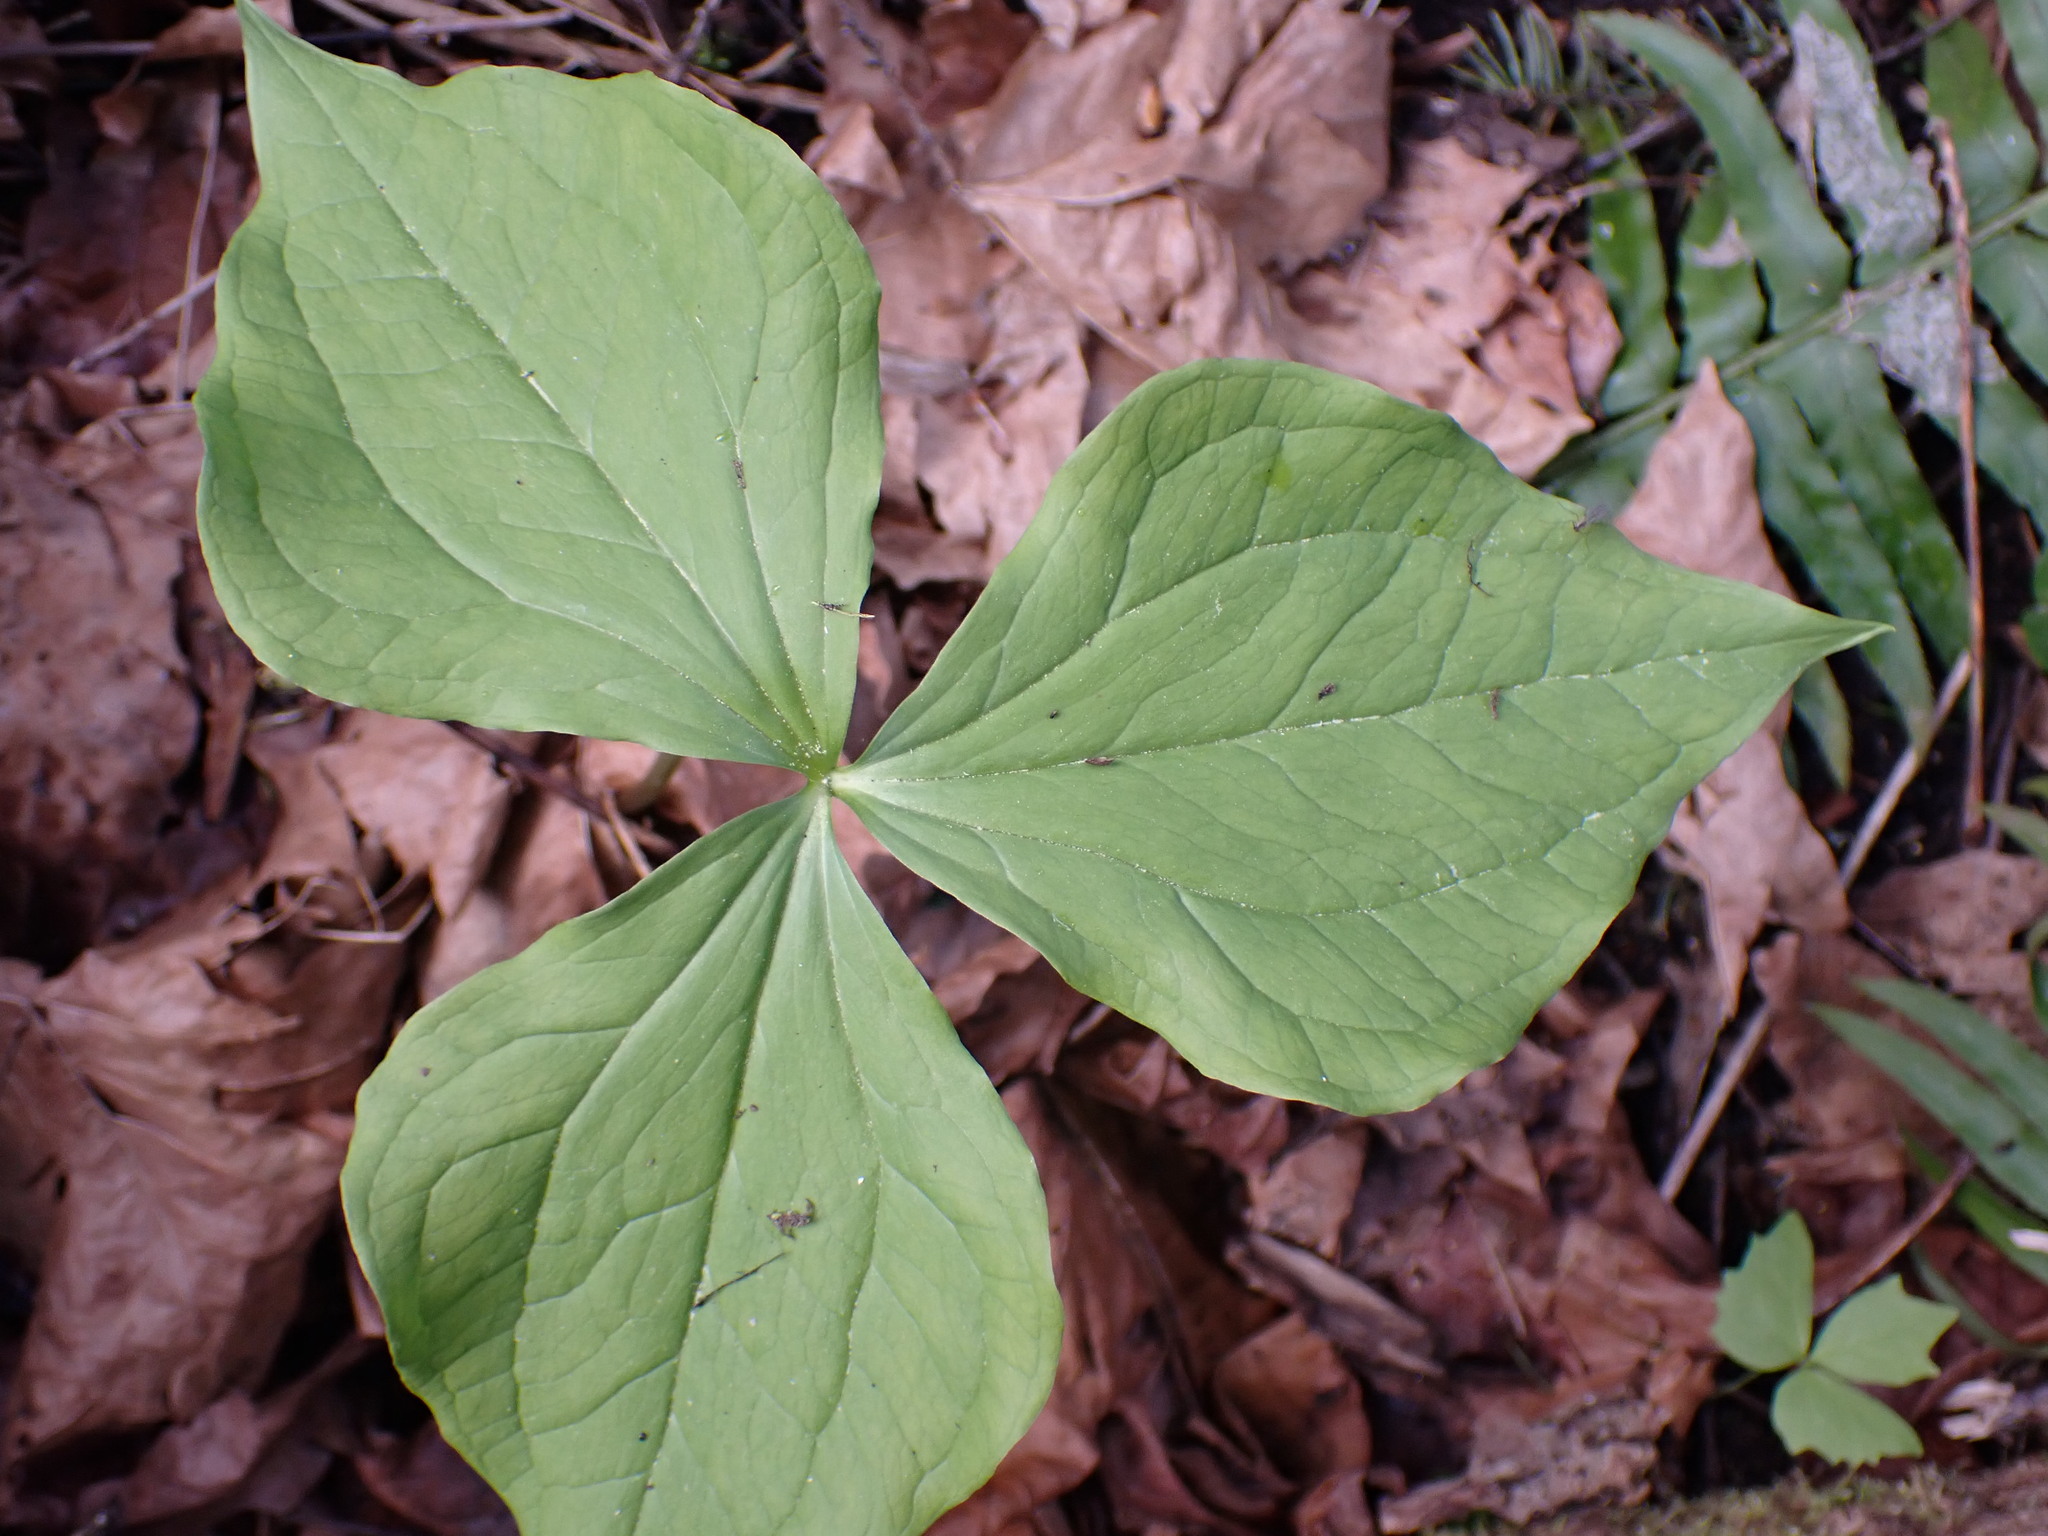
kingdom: Plantae
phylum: Tracheophyta
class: Liliopsida
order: Liliales
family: Melanthiaceae
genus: Trillium
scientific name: Trillium ovatum
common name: Pacific trillium
